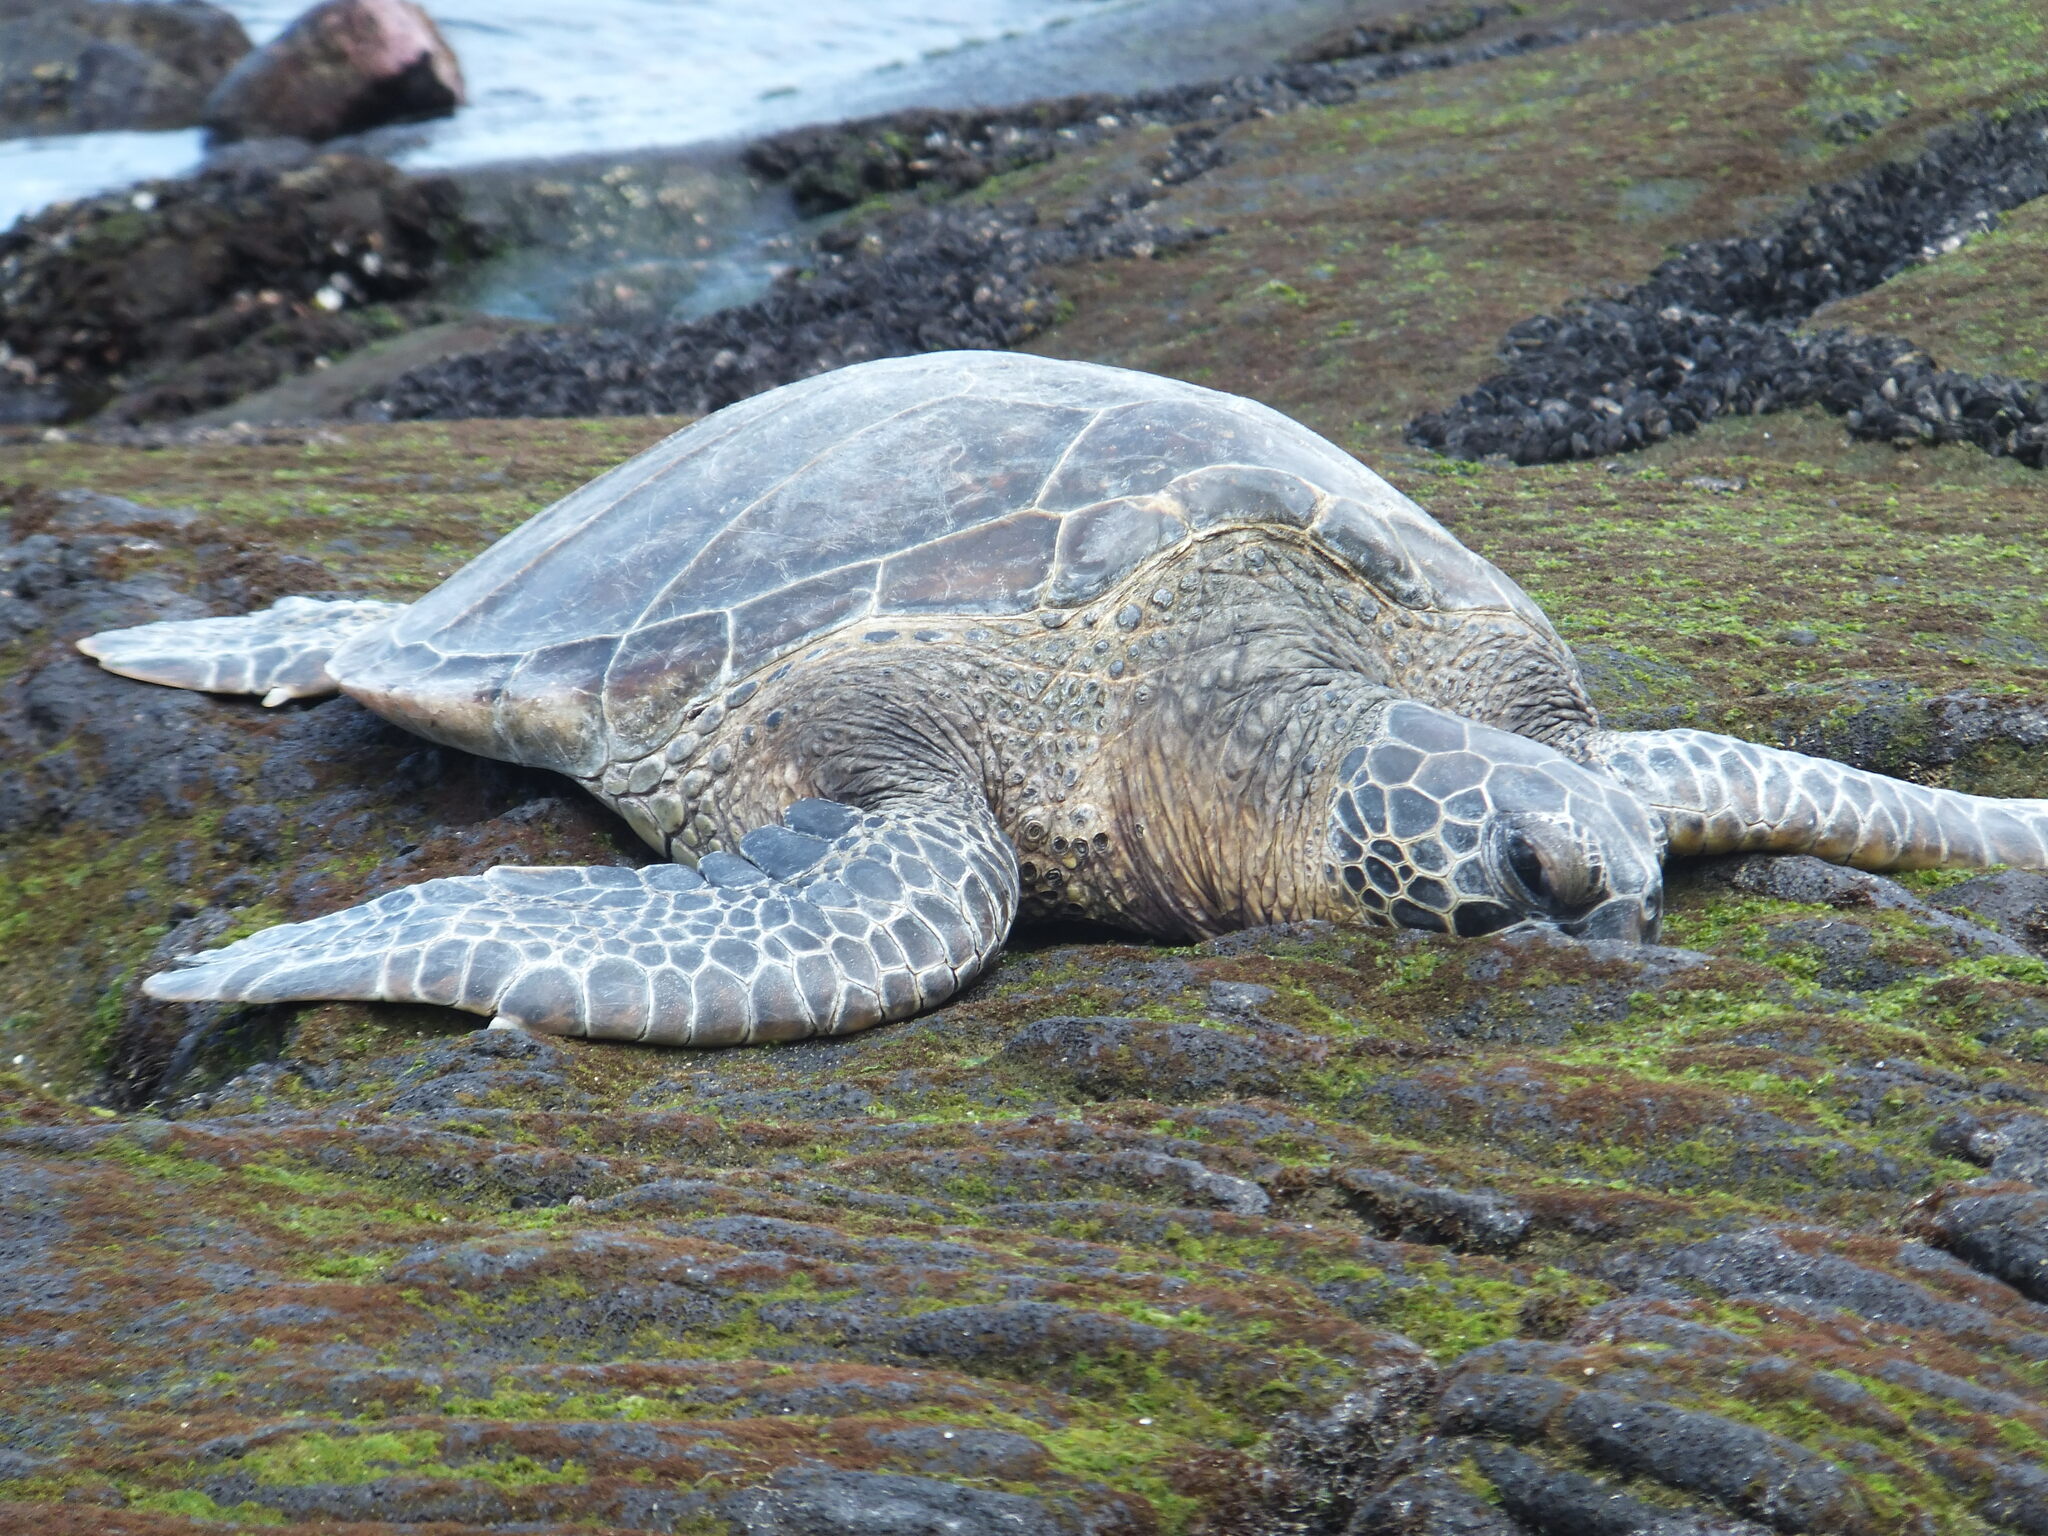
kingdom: Animalia
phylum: Chordata
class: Testudines
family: Cheloniidae
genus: Chelonia
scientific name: Chelonia mydas
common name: Green turtle
